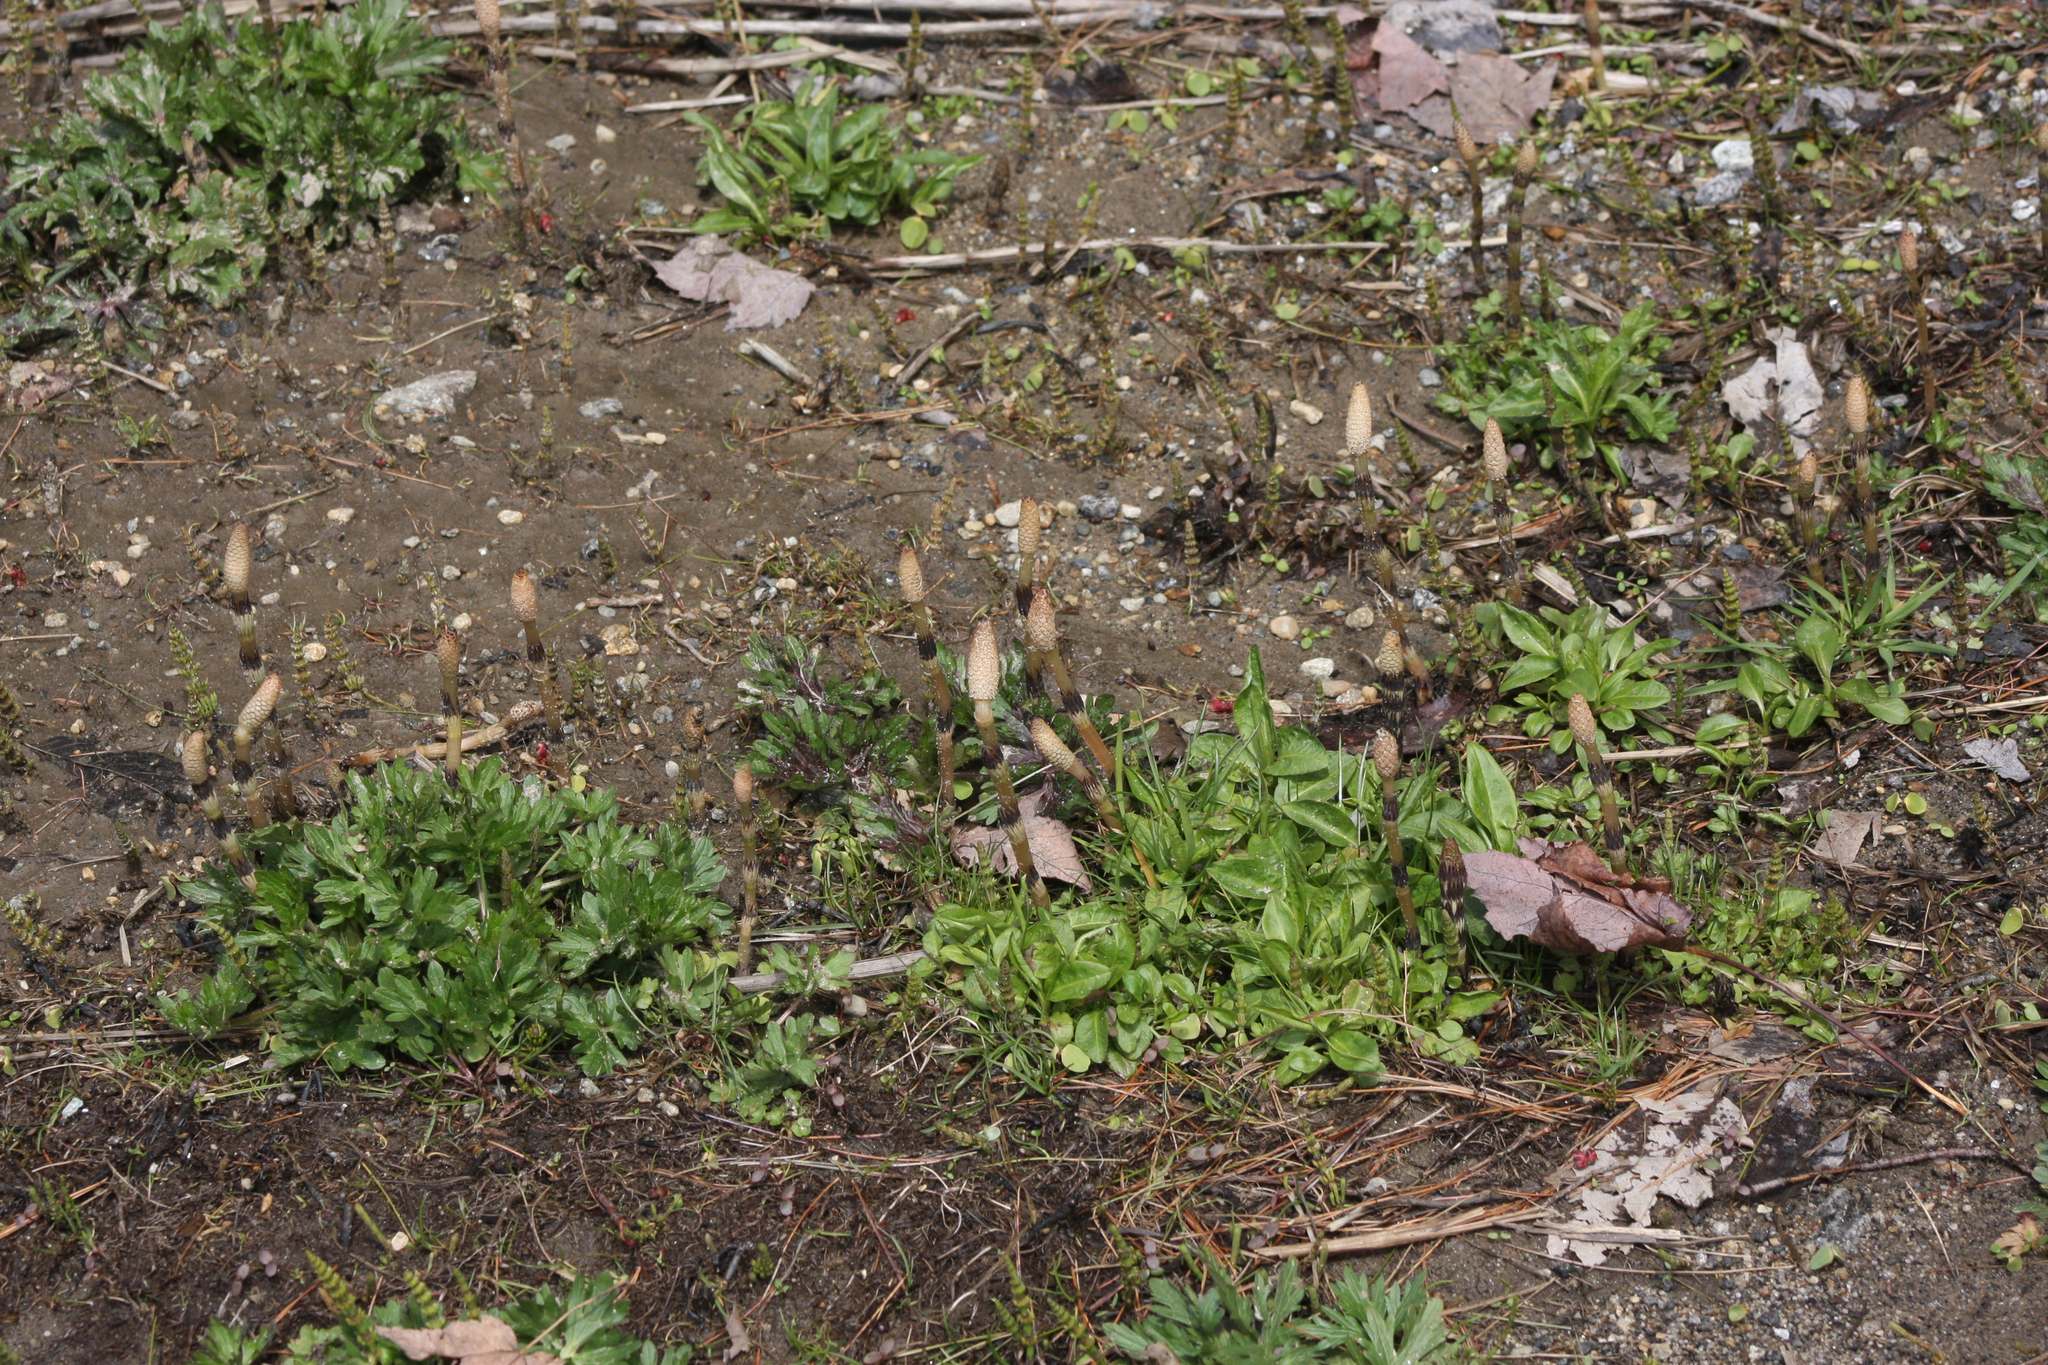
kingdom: Plantae
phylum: Tracheophyta
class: Polypodiopsida
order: Equisetales
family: Equisetaceae
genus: Equisetum
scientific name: Equisetum arvense
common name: Field horsetail
